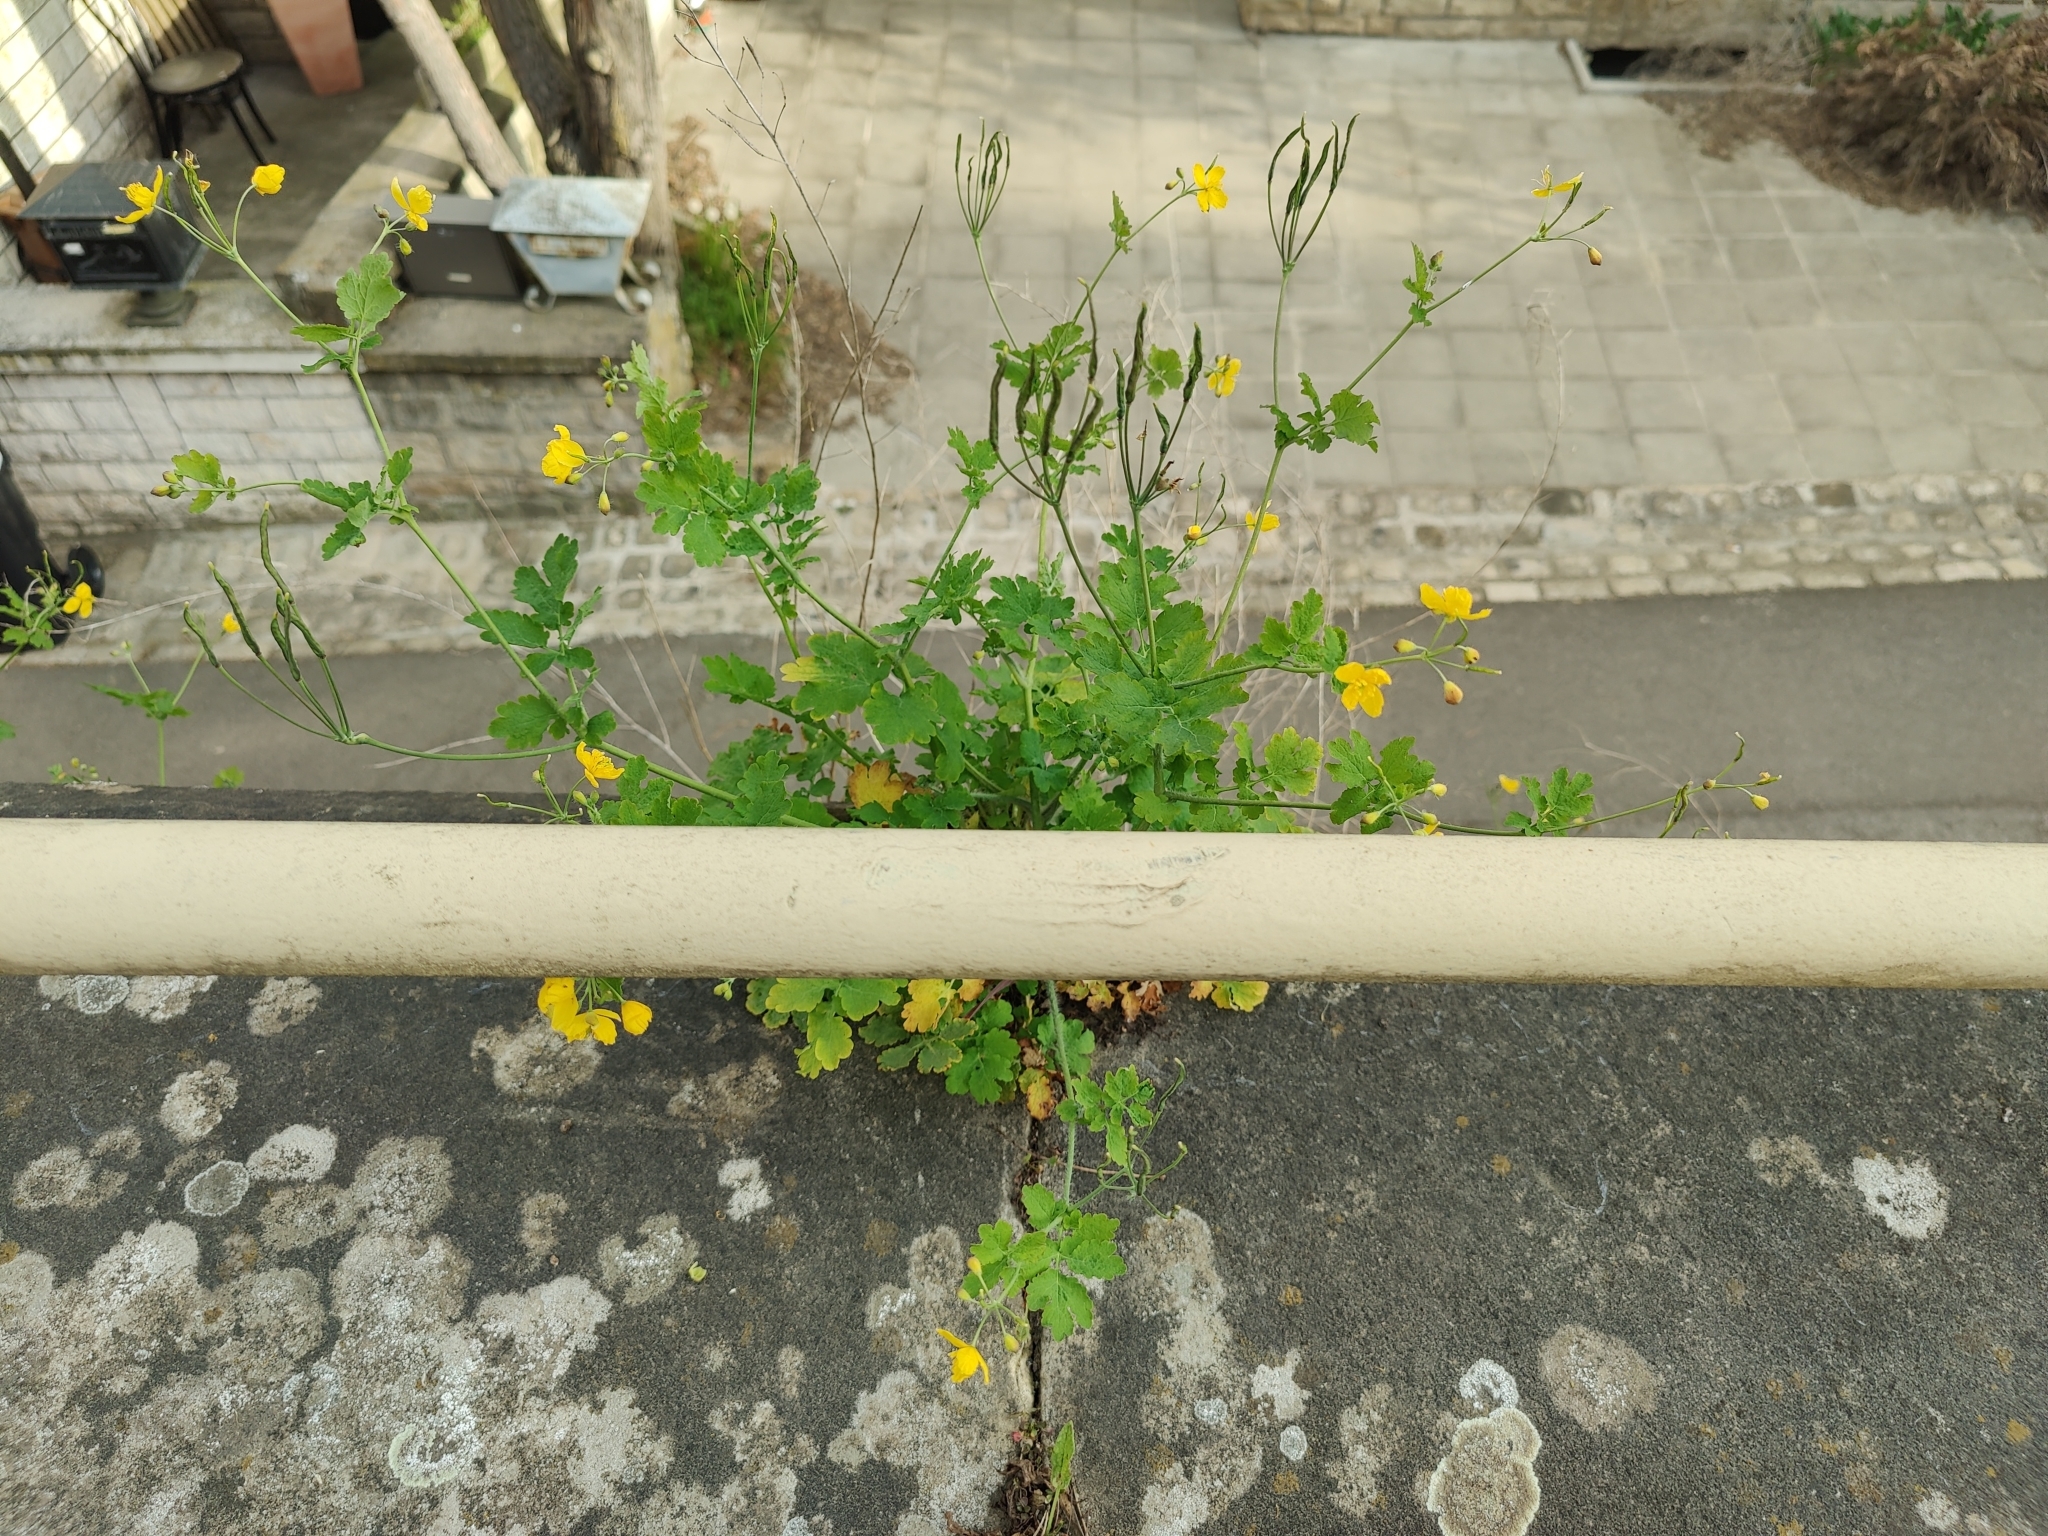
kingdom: Plantae
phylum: Tracheophyta
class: Magnoliopsida
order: Ranunculales
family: Papaveraceae
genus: Chelidonium
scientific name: Chelidonium majus
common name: Greater celandine
